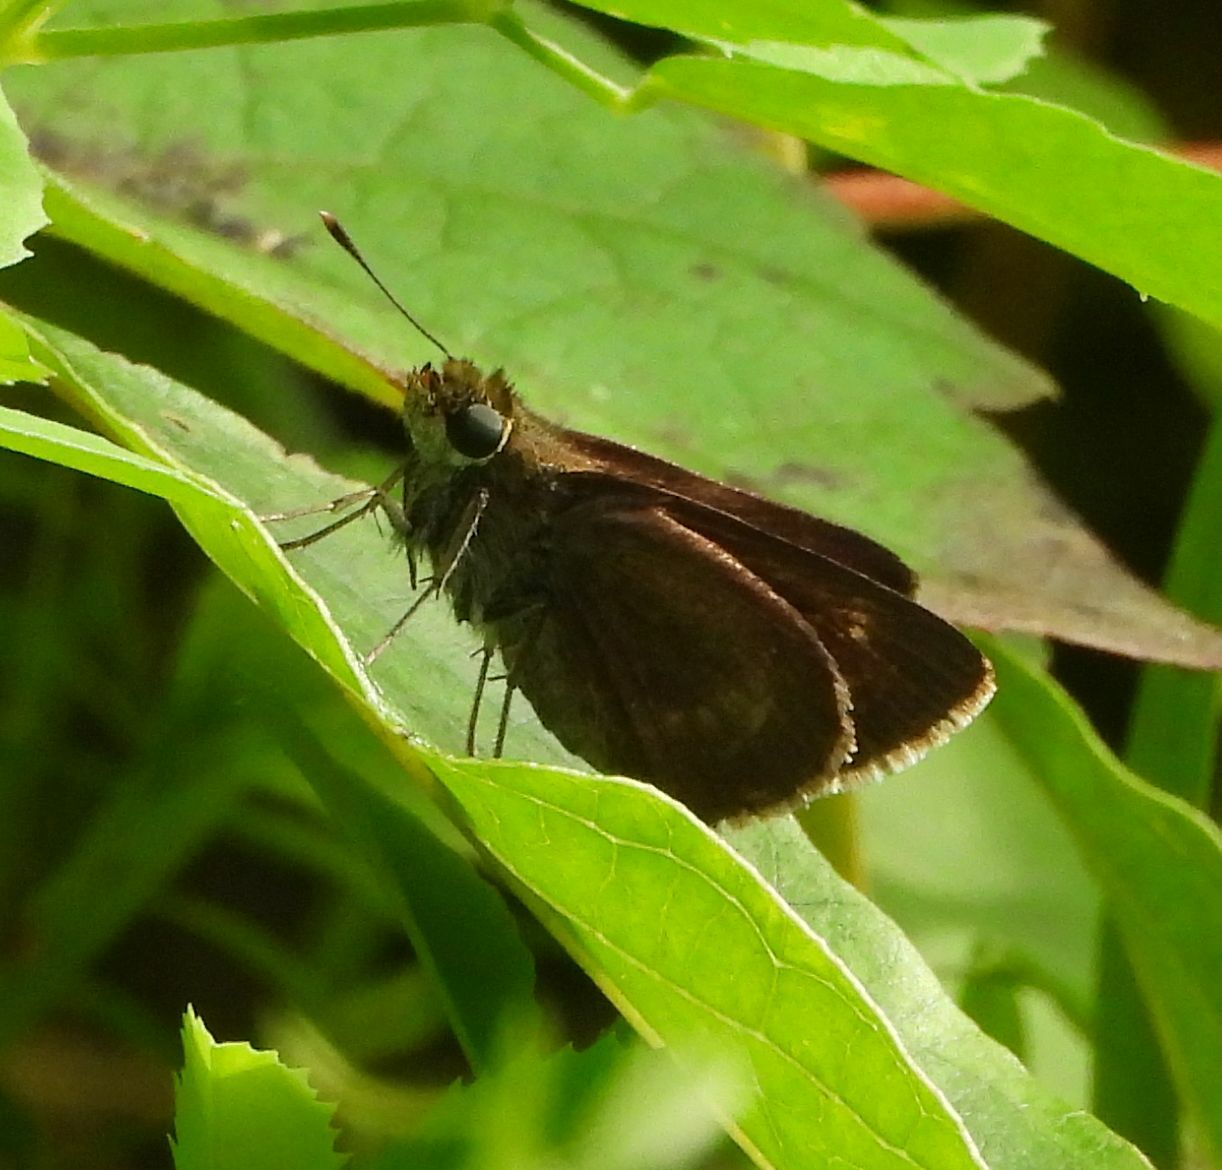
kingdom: Animalia
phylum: Arthropoda
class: Insecta
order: Lepidoptera
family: Hesperiidae
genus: Euphyes
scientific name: Euphyes vestris
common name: Dun skipper
